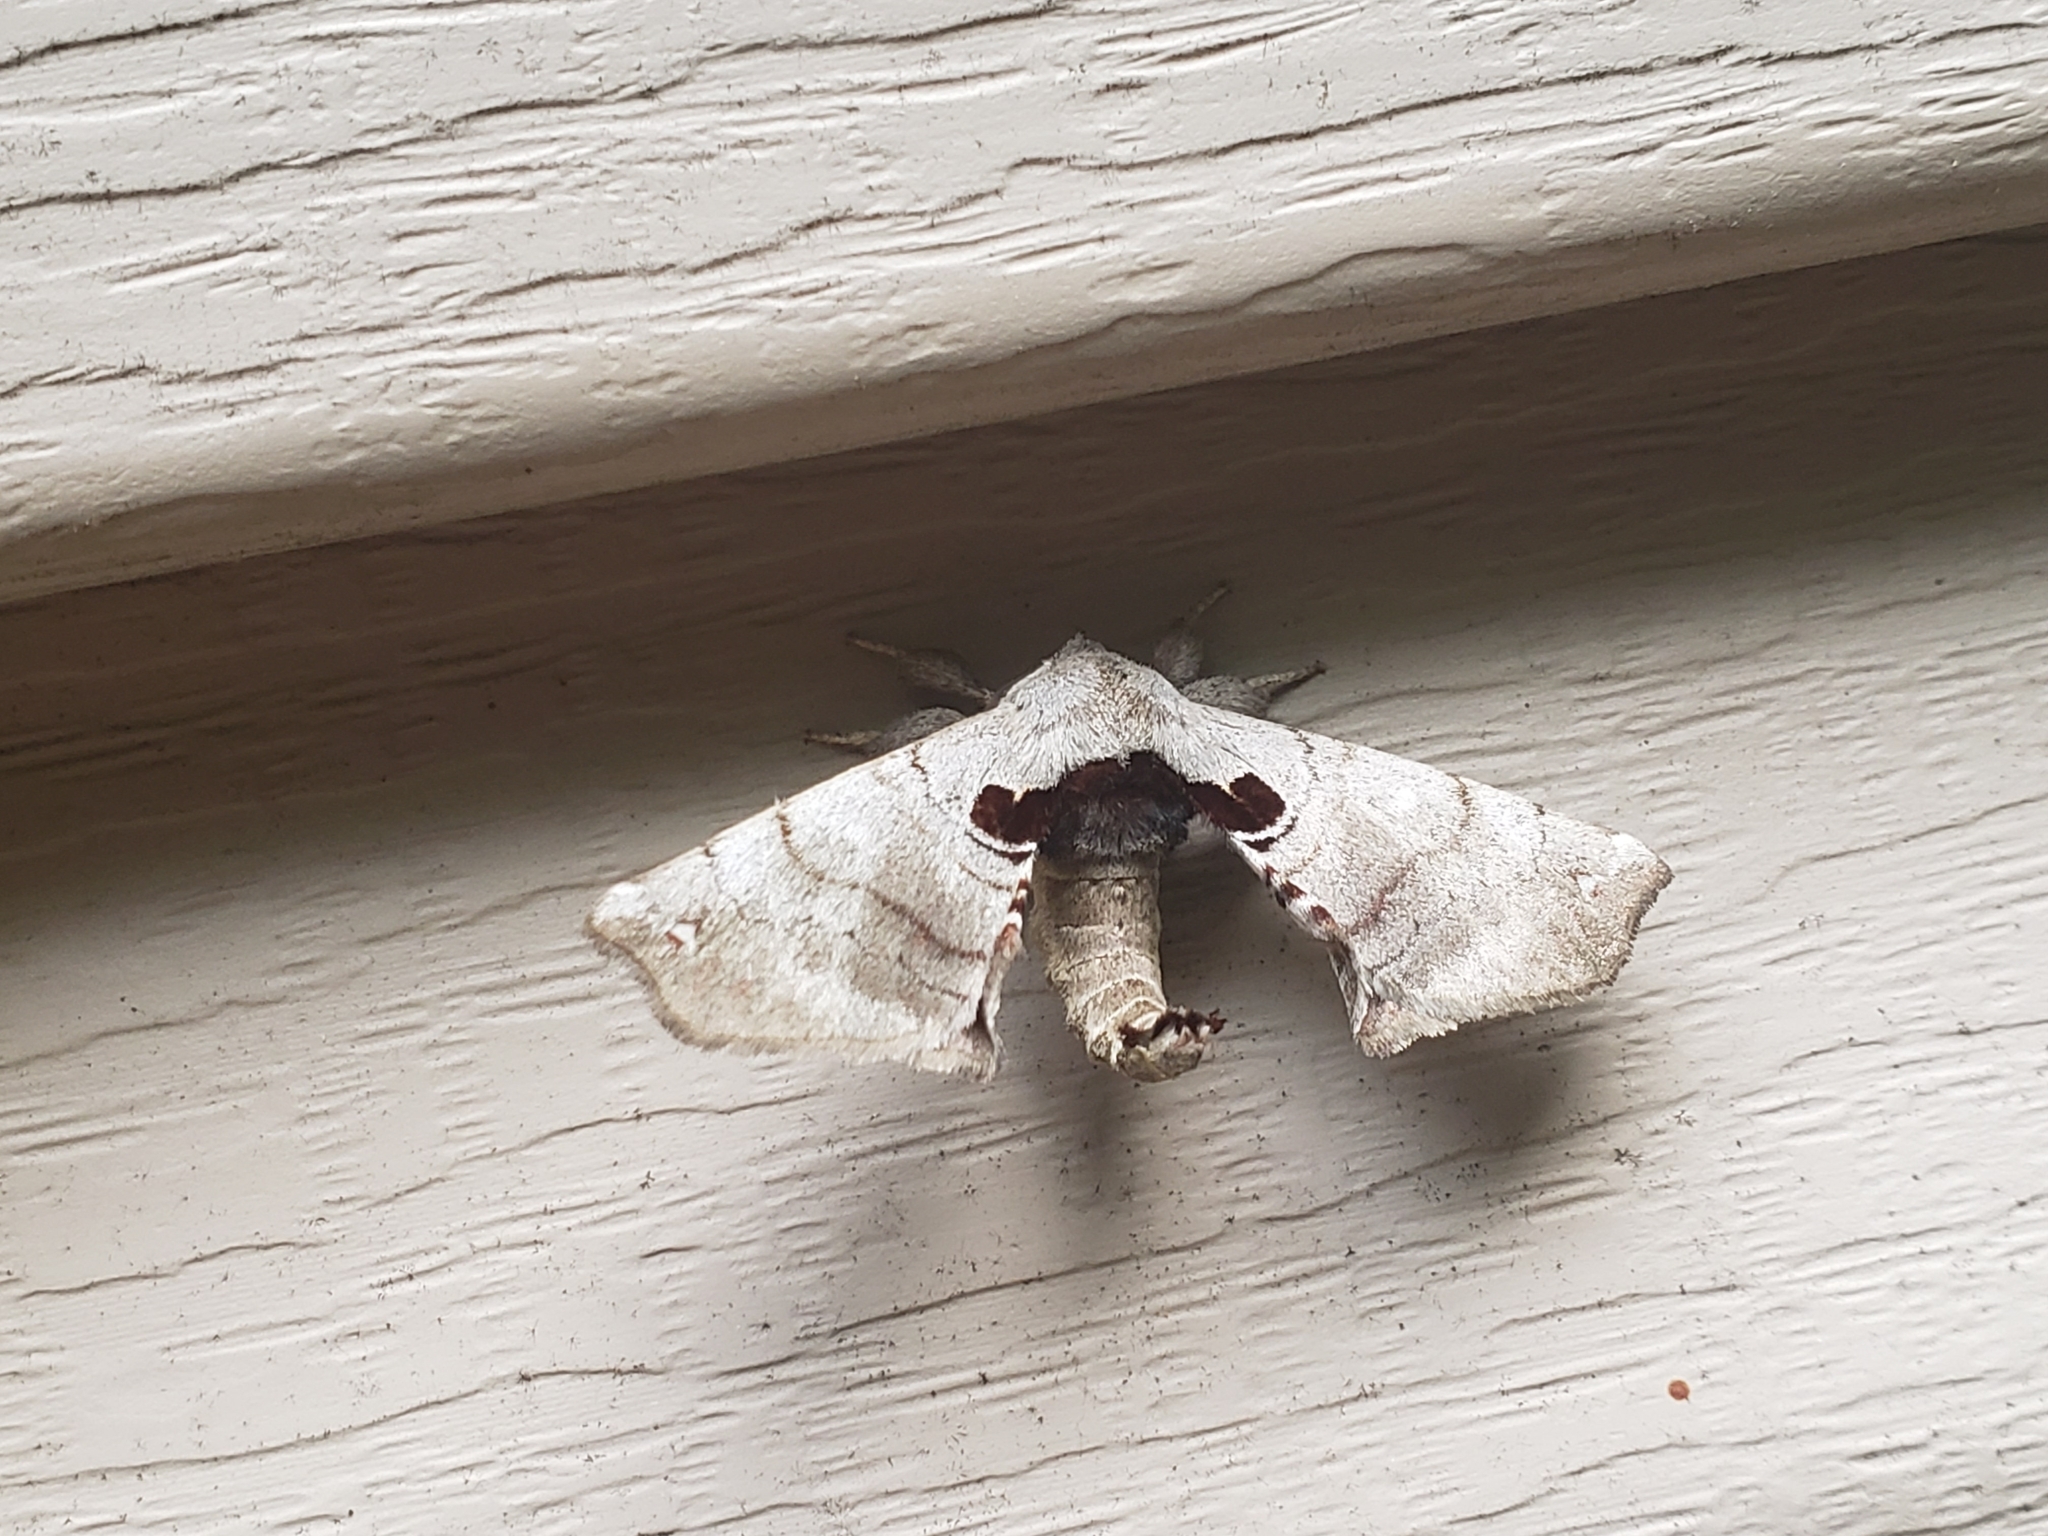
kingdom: Animalia
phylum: Arthropoda
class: Insecta
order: Lepidoptera
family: Apatelodidae
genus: Hygrochroa
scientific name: Hygrochroa Apatelodes torrefacta
